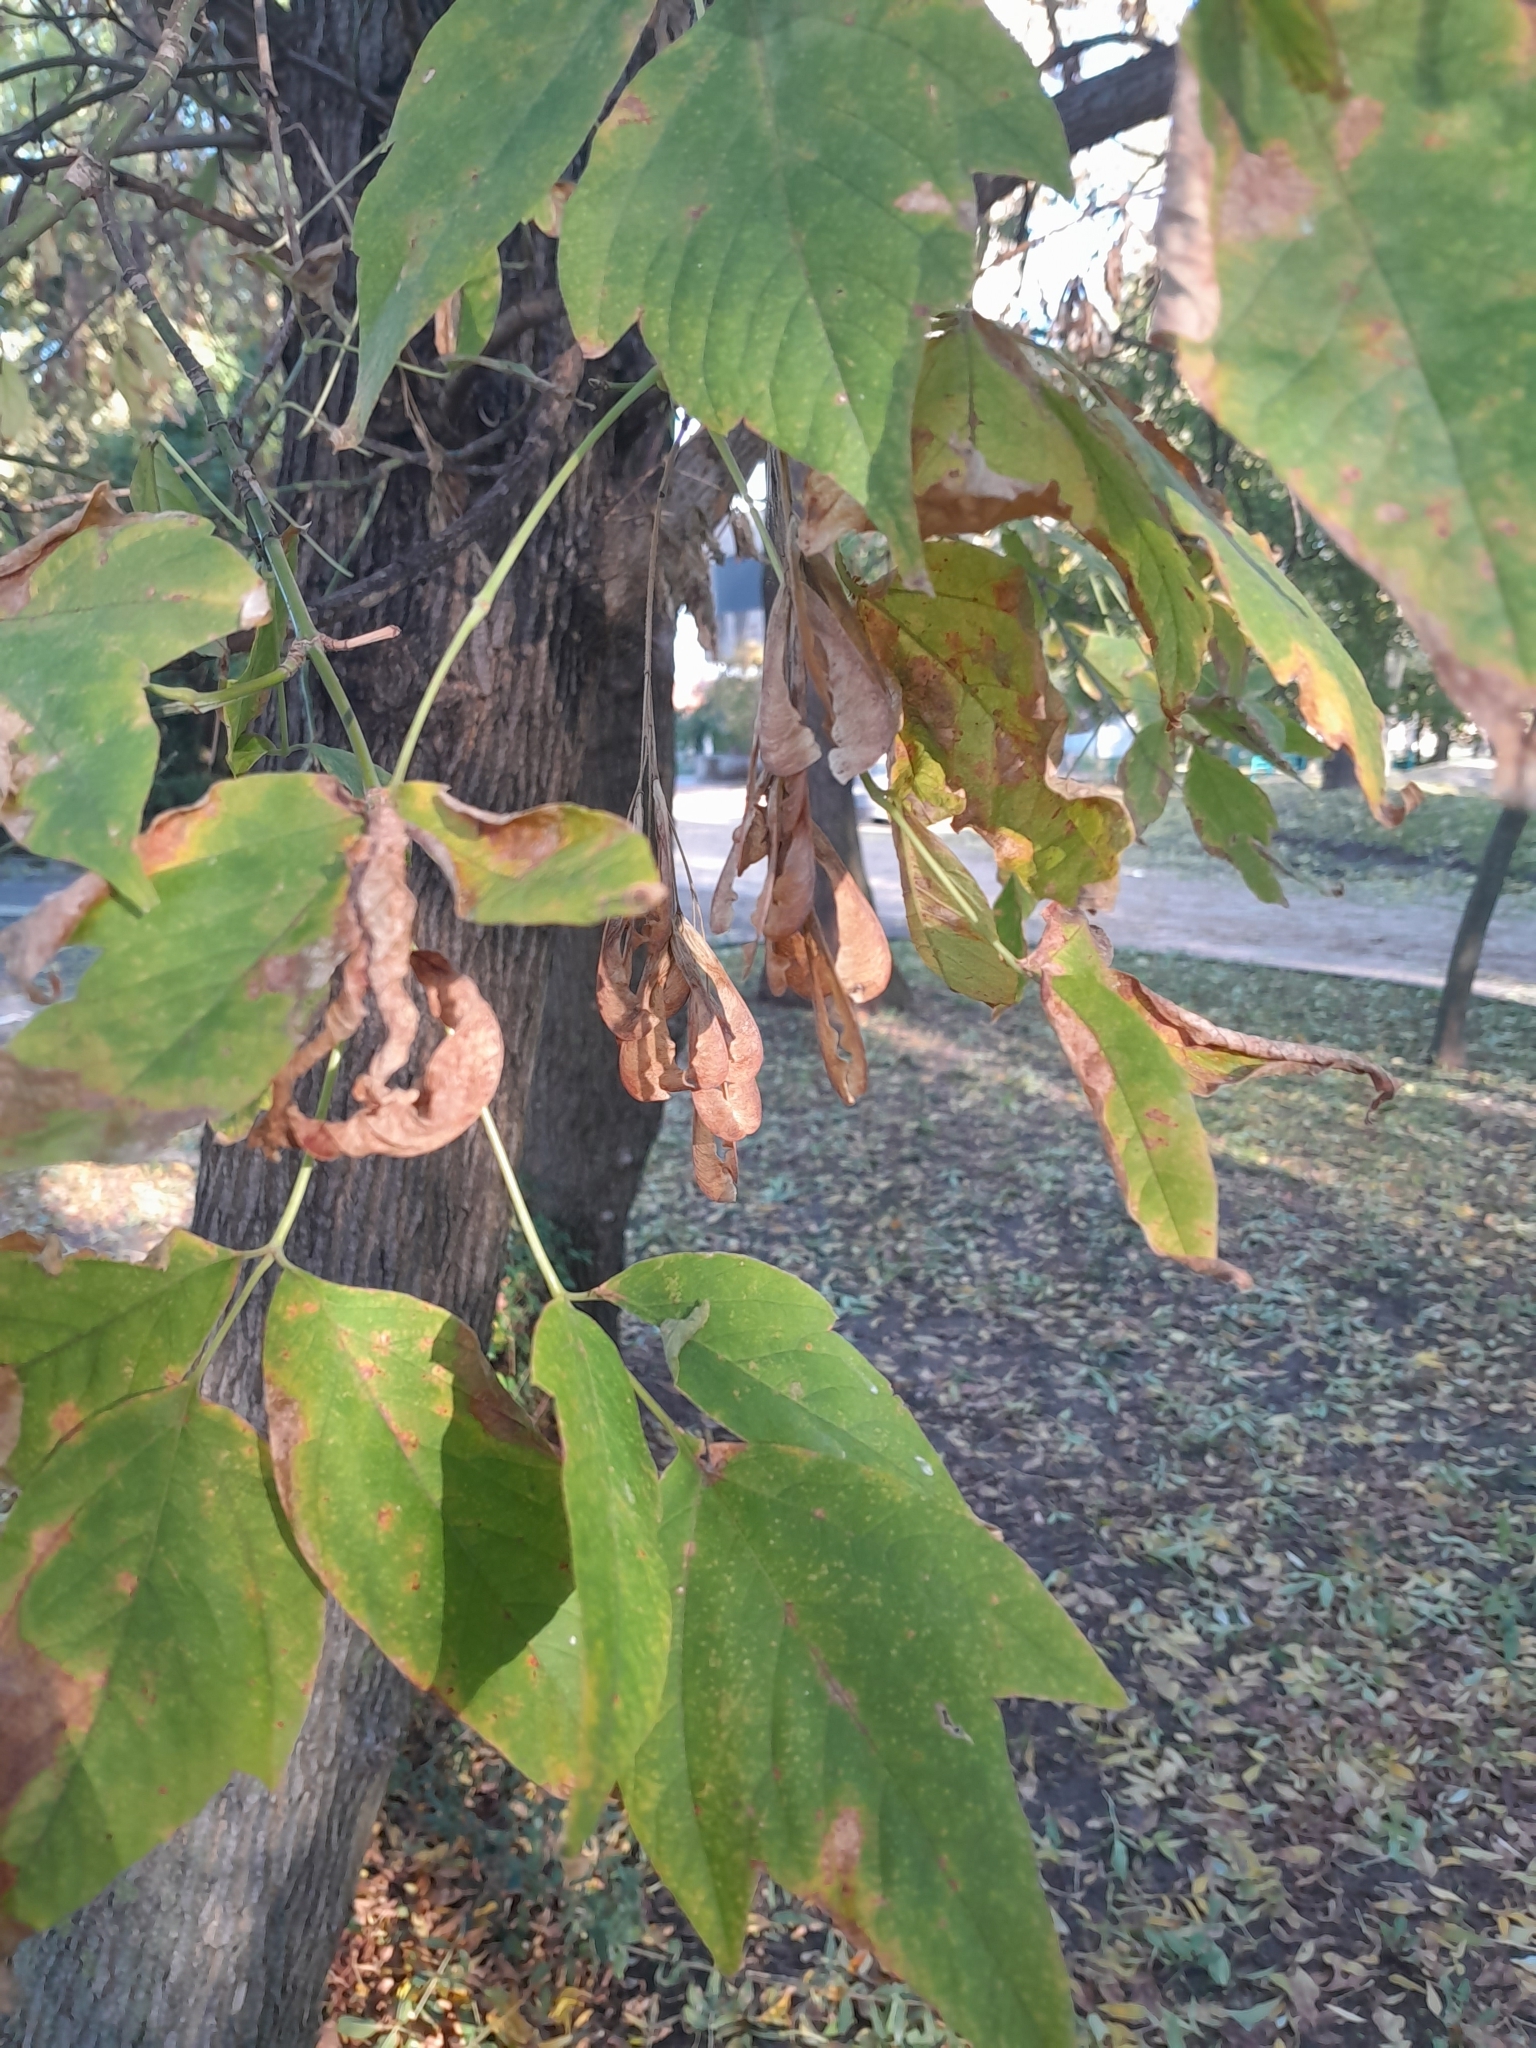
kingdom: Plantae
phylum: Tracheophyta
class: Magnoliopsida
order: Sapindales
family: Sapindaceae
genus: Acer
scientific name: Acer negundo
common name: Ashleaf maple
